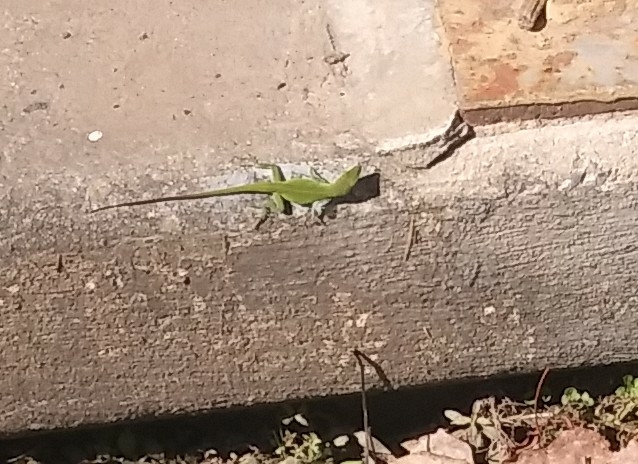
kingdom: Animalia
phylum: Chordata
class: Squamata
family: Dactyloidae
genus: Anolis
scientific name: Anolis carolinensis
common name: Green anole
